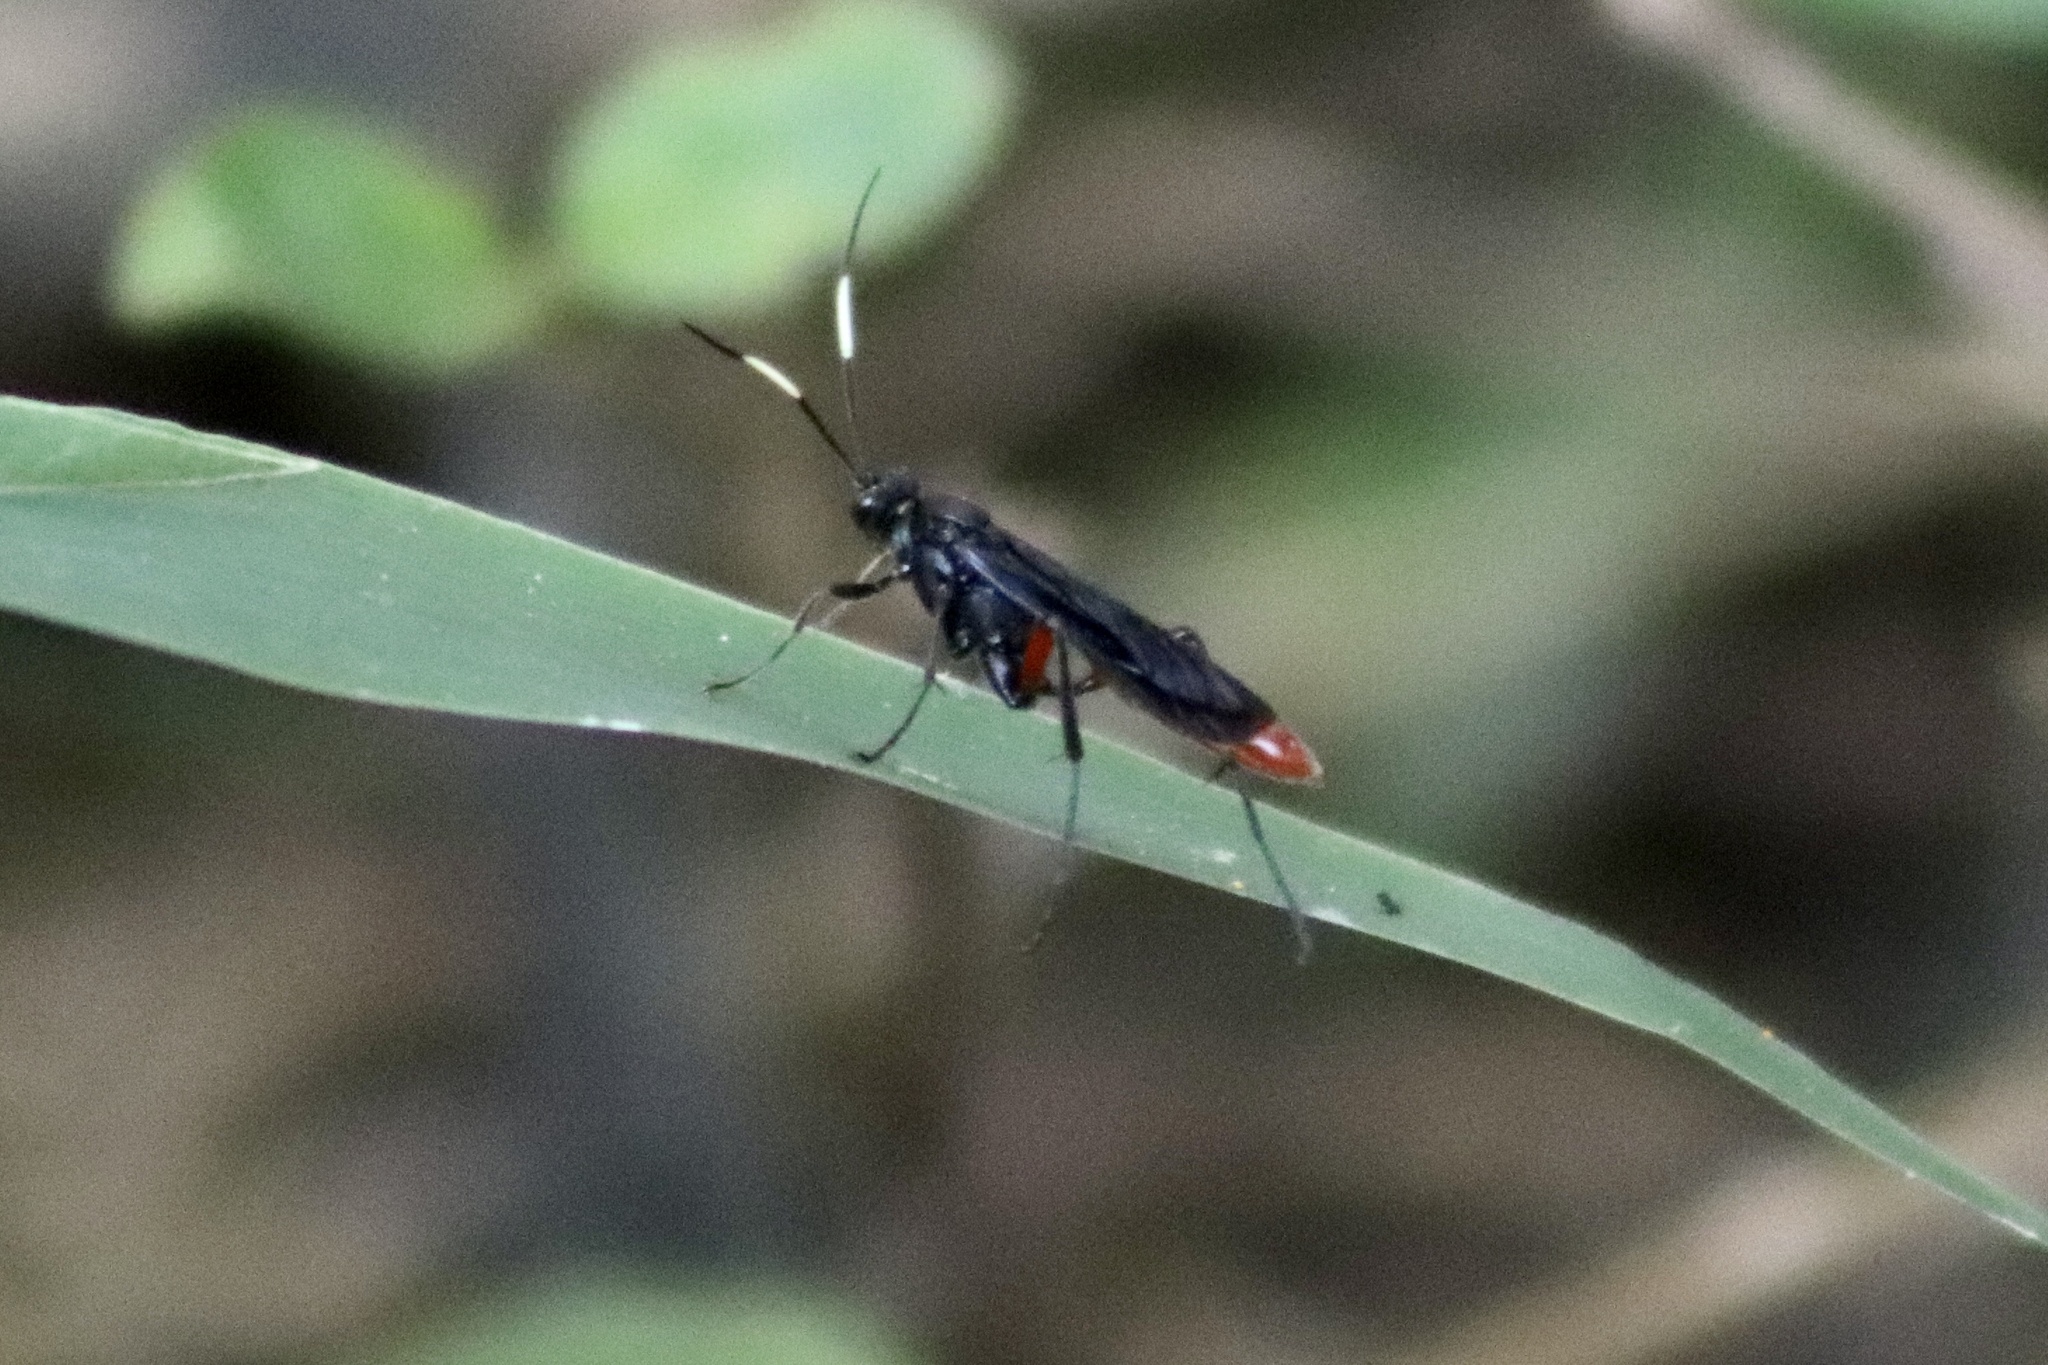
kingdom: Animalia
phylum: Arthropoda
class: Insecta
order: Hymenoptera
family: Ichneumonidae
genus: Limonethe
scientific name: Limonethe maurator
